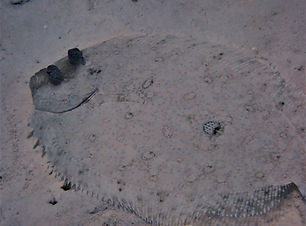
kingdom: Animalia
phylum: Chordata
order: Pleuronectiformes
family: Bothidae
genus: Bothus
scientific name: Bothus maculiferus
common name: Mottled flounder
